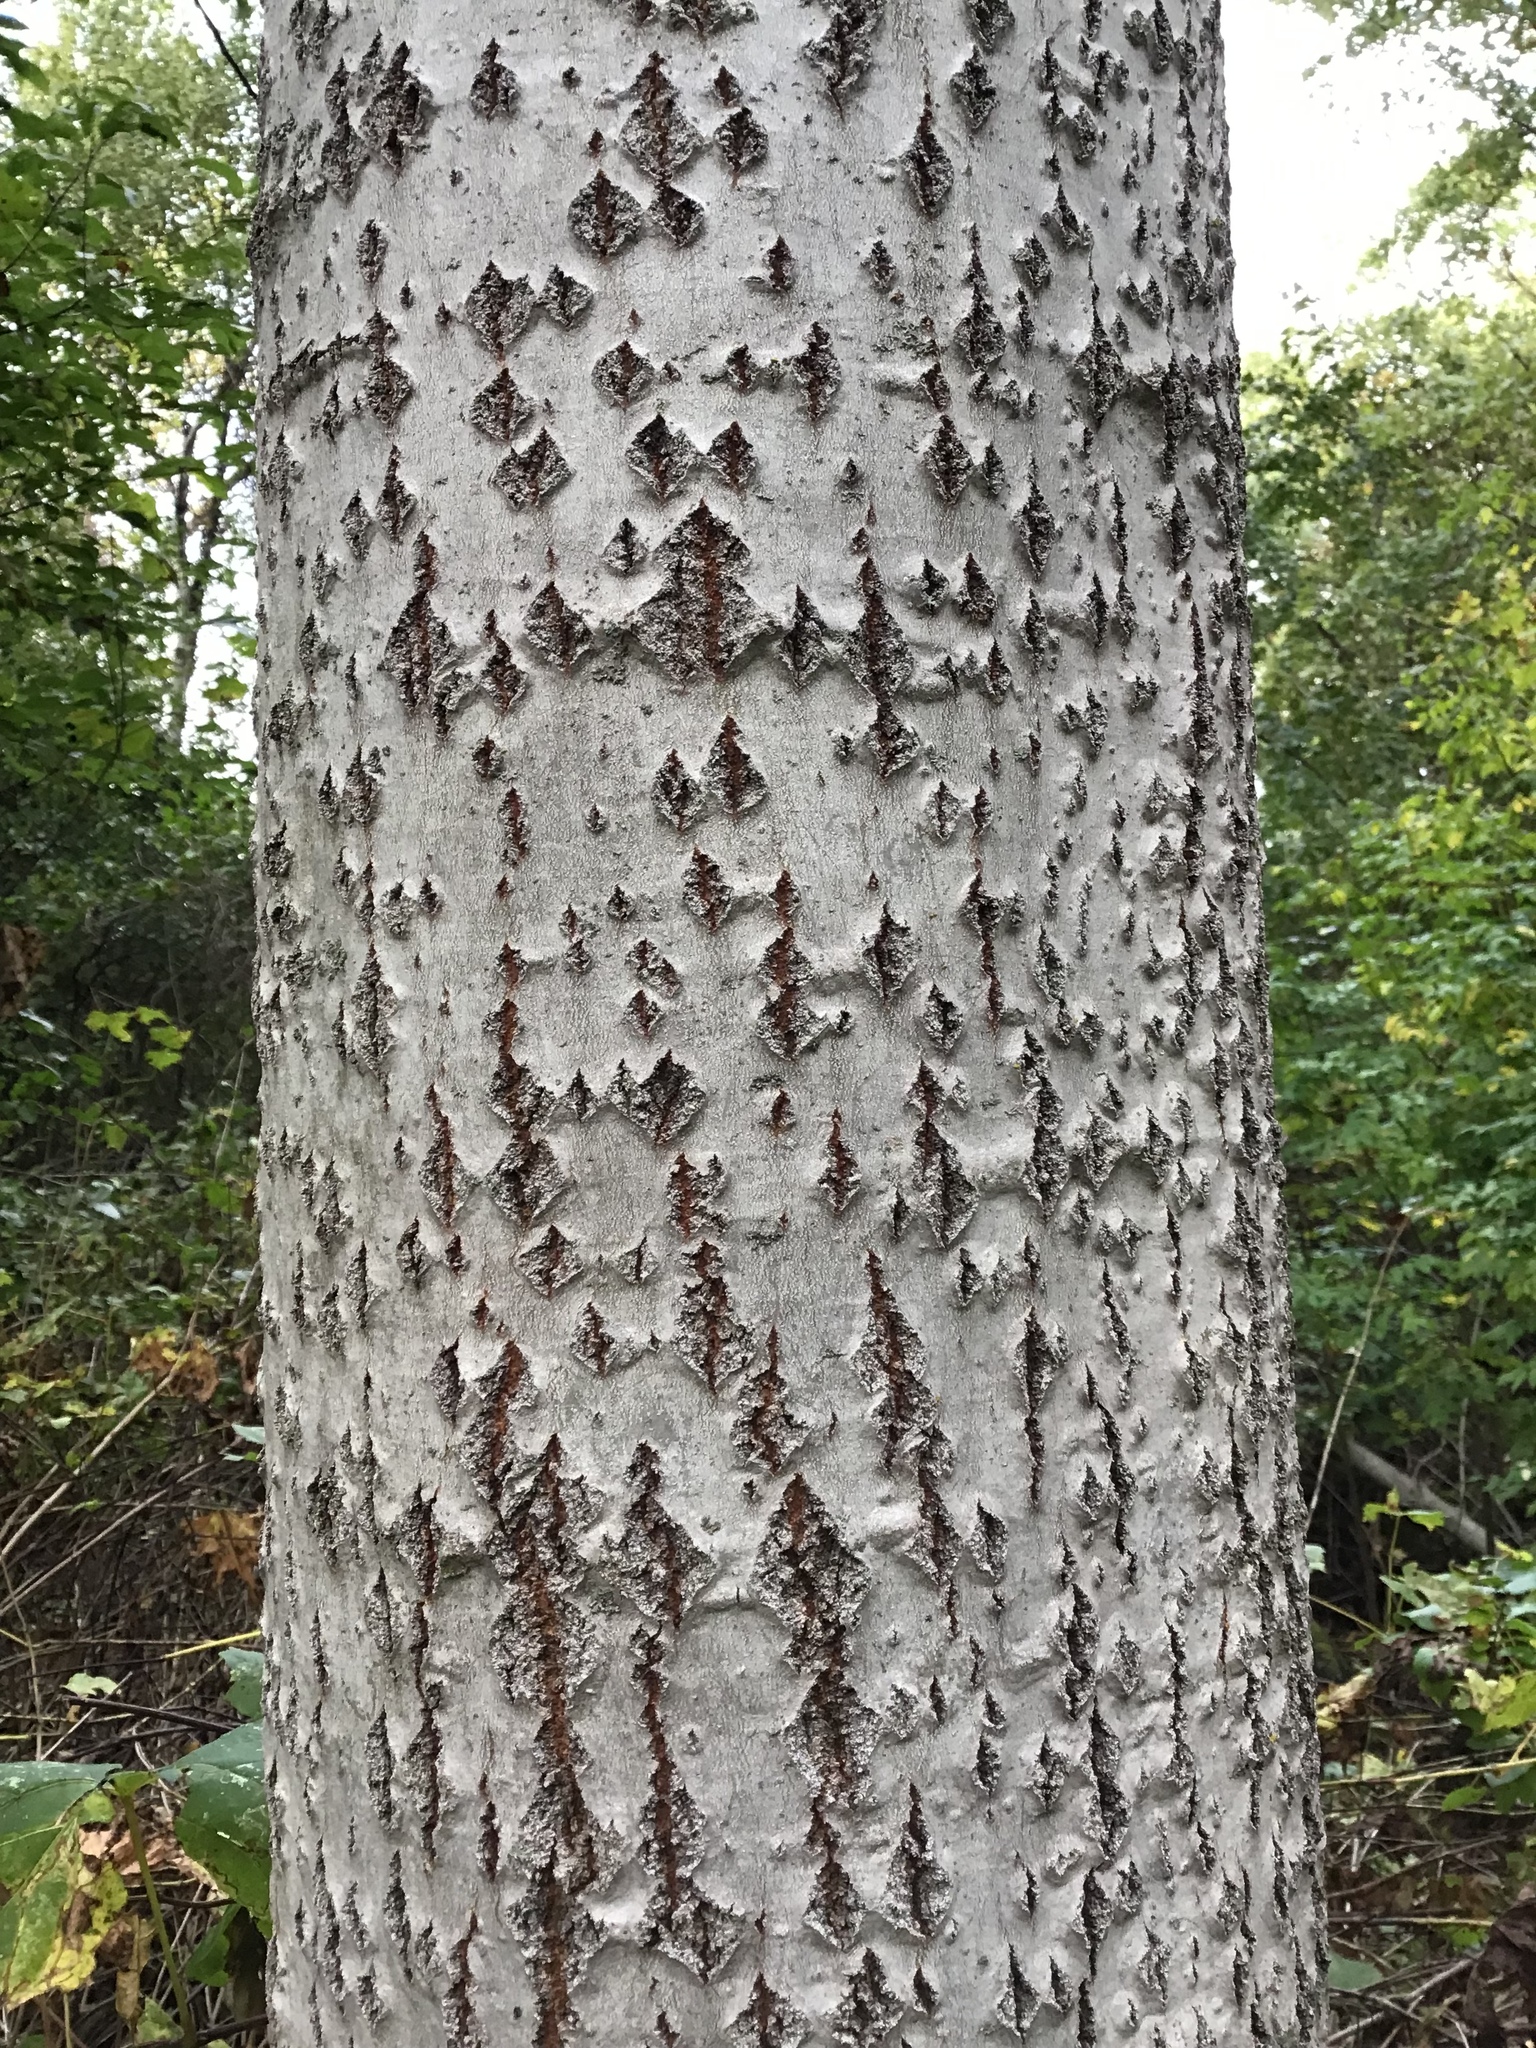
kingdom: Plantae
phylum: Tracheophyta
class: Magnoliopsida
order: Malpighiales
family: Salicaceae
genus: Populus
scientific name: Populus grandidentata
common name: Bigtooth aspen
